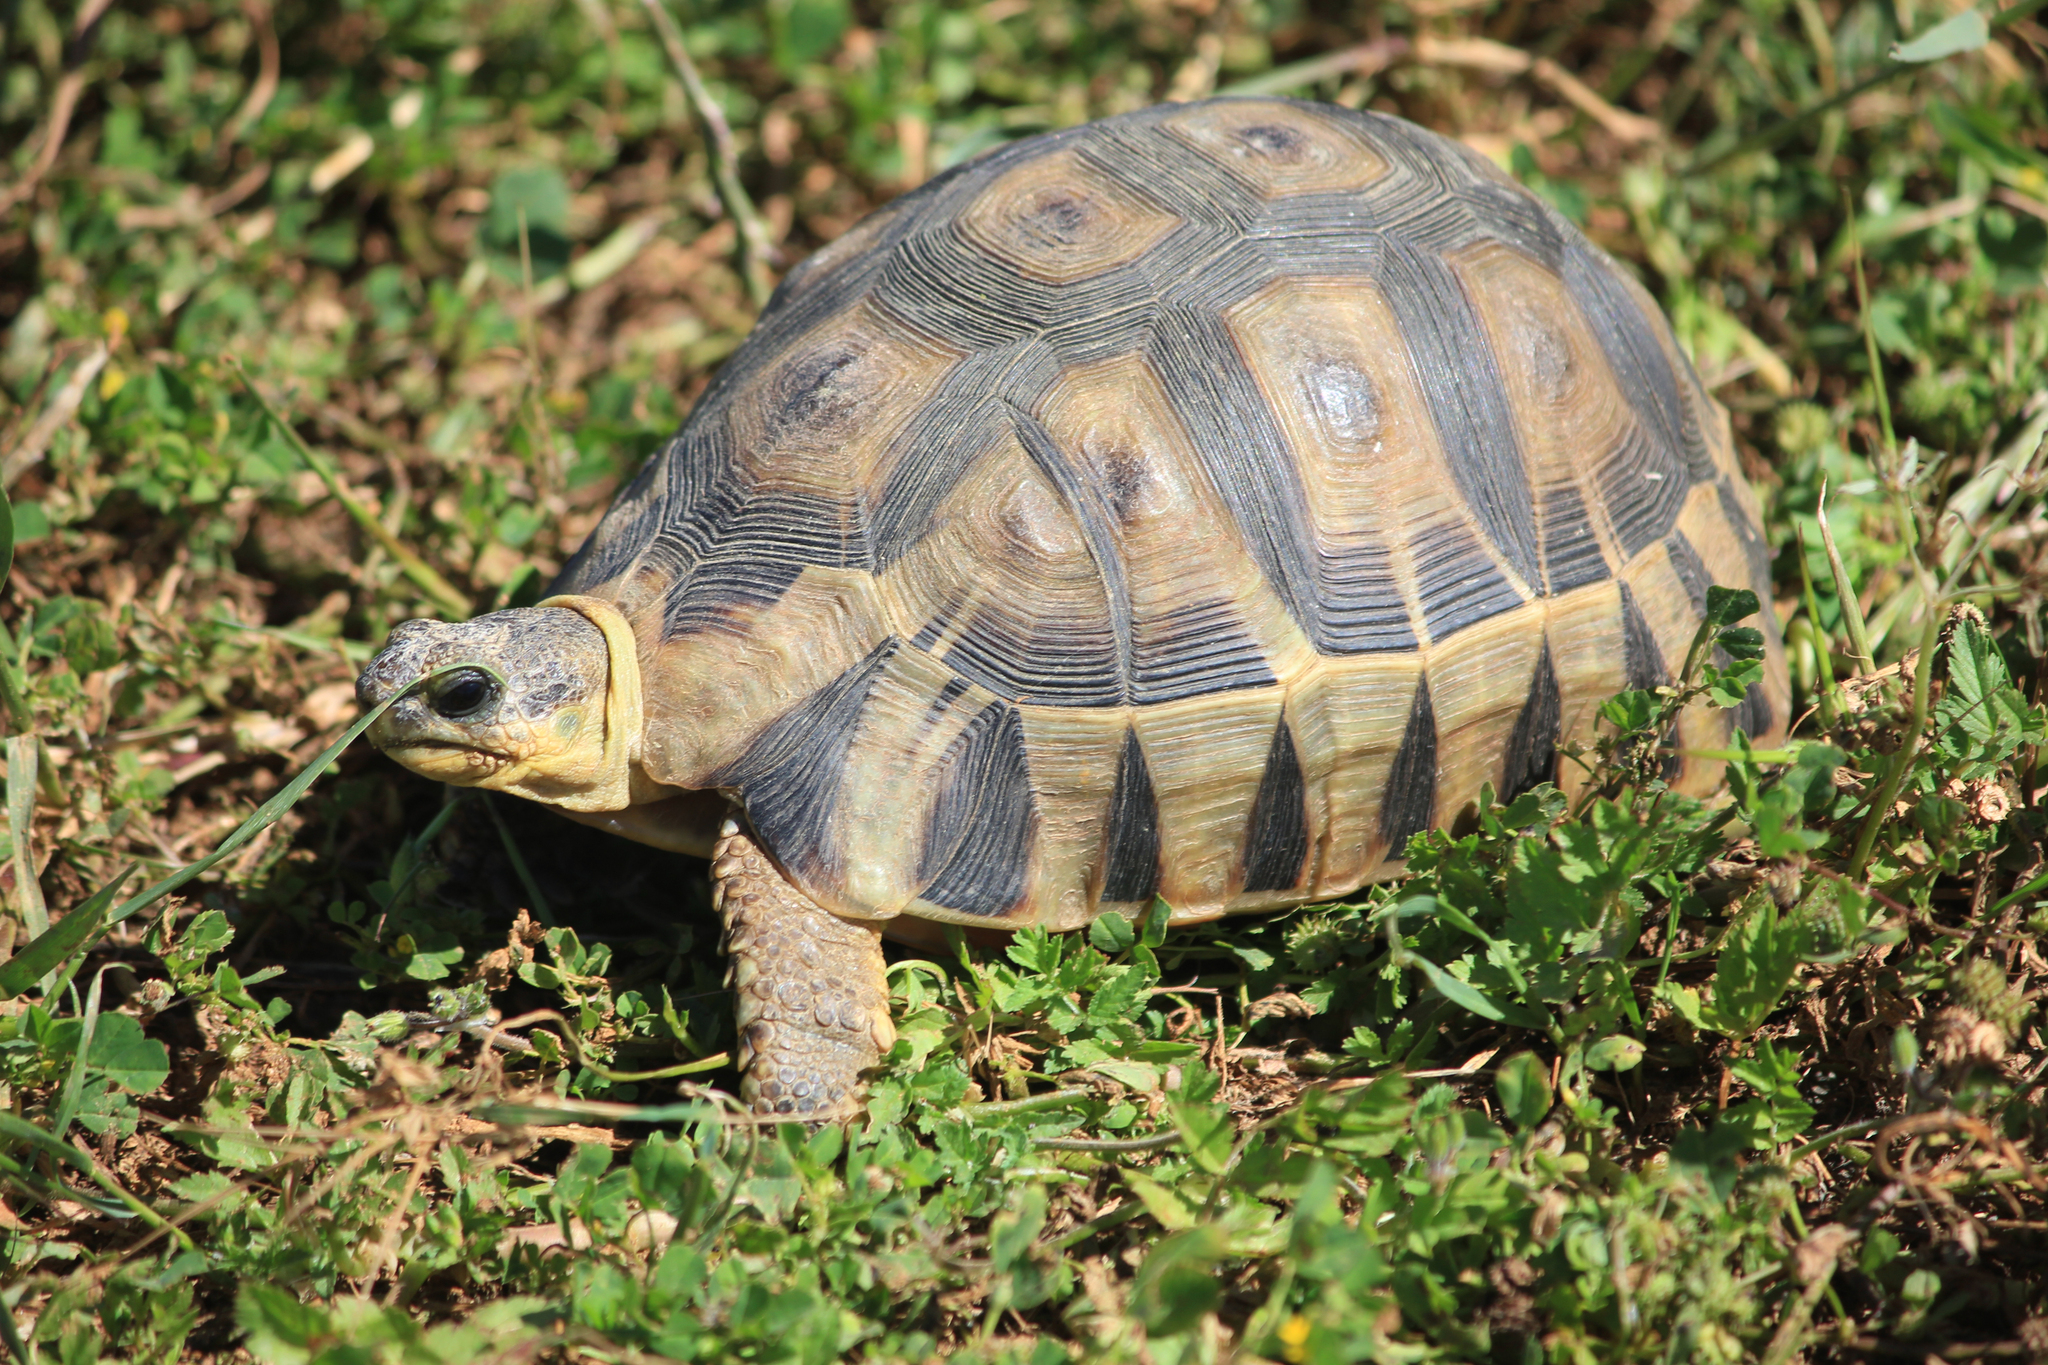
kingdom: Animalia
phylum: Chordata
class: Testudines
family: Testudinidae
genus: Chersina
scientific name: Chersina angulata
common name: South african bowsprit tortoise
